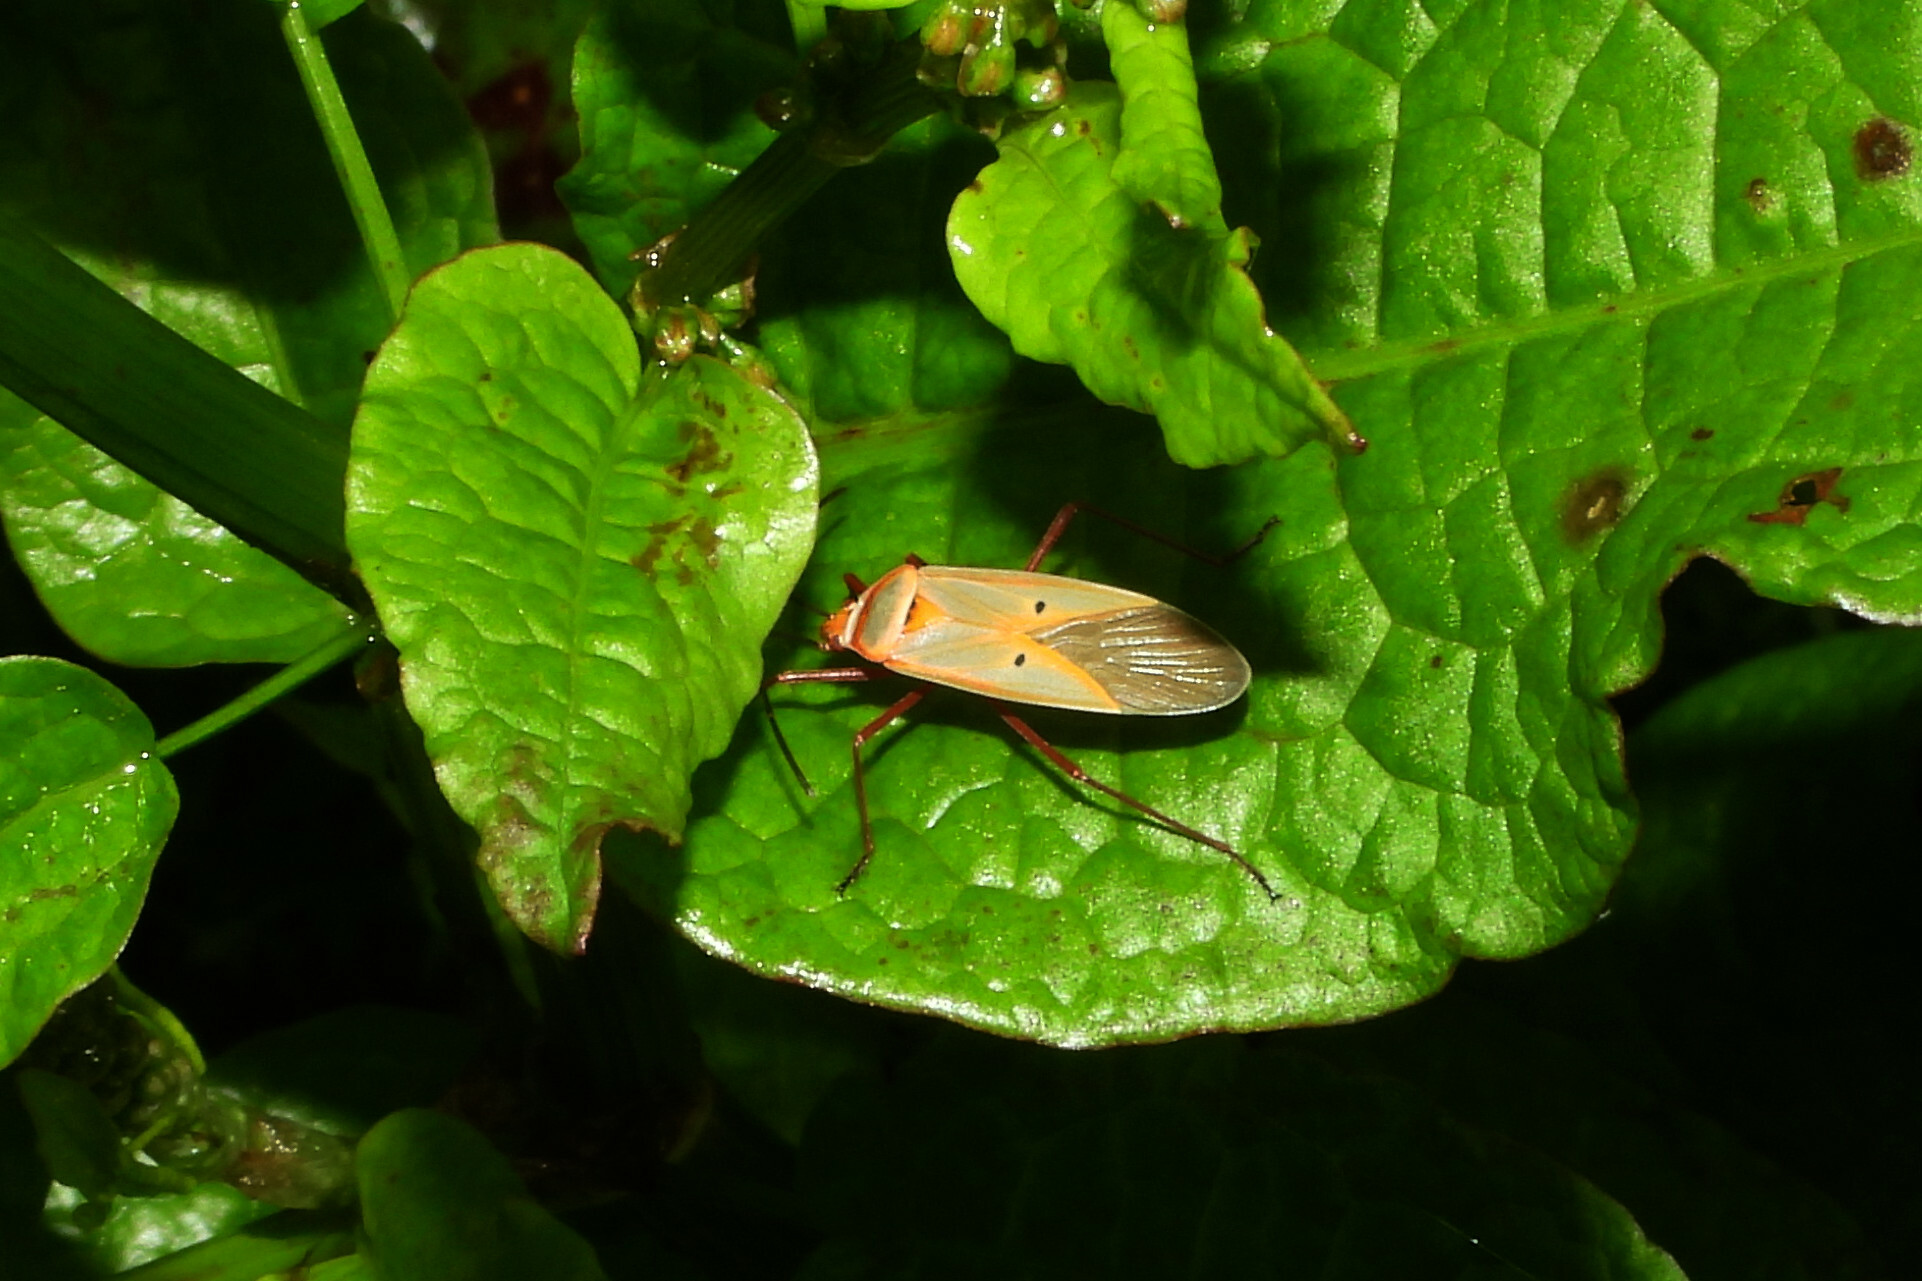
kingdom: Animalia
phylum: Arthropoda
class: Insecta
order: Hemiptera
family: Pyrrhocoridae
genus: Dysdercus
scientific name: Dysdercus evanescens
